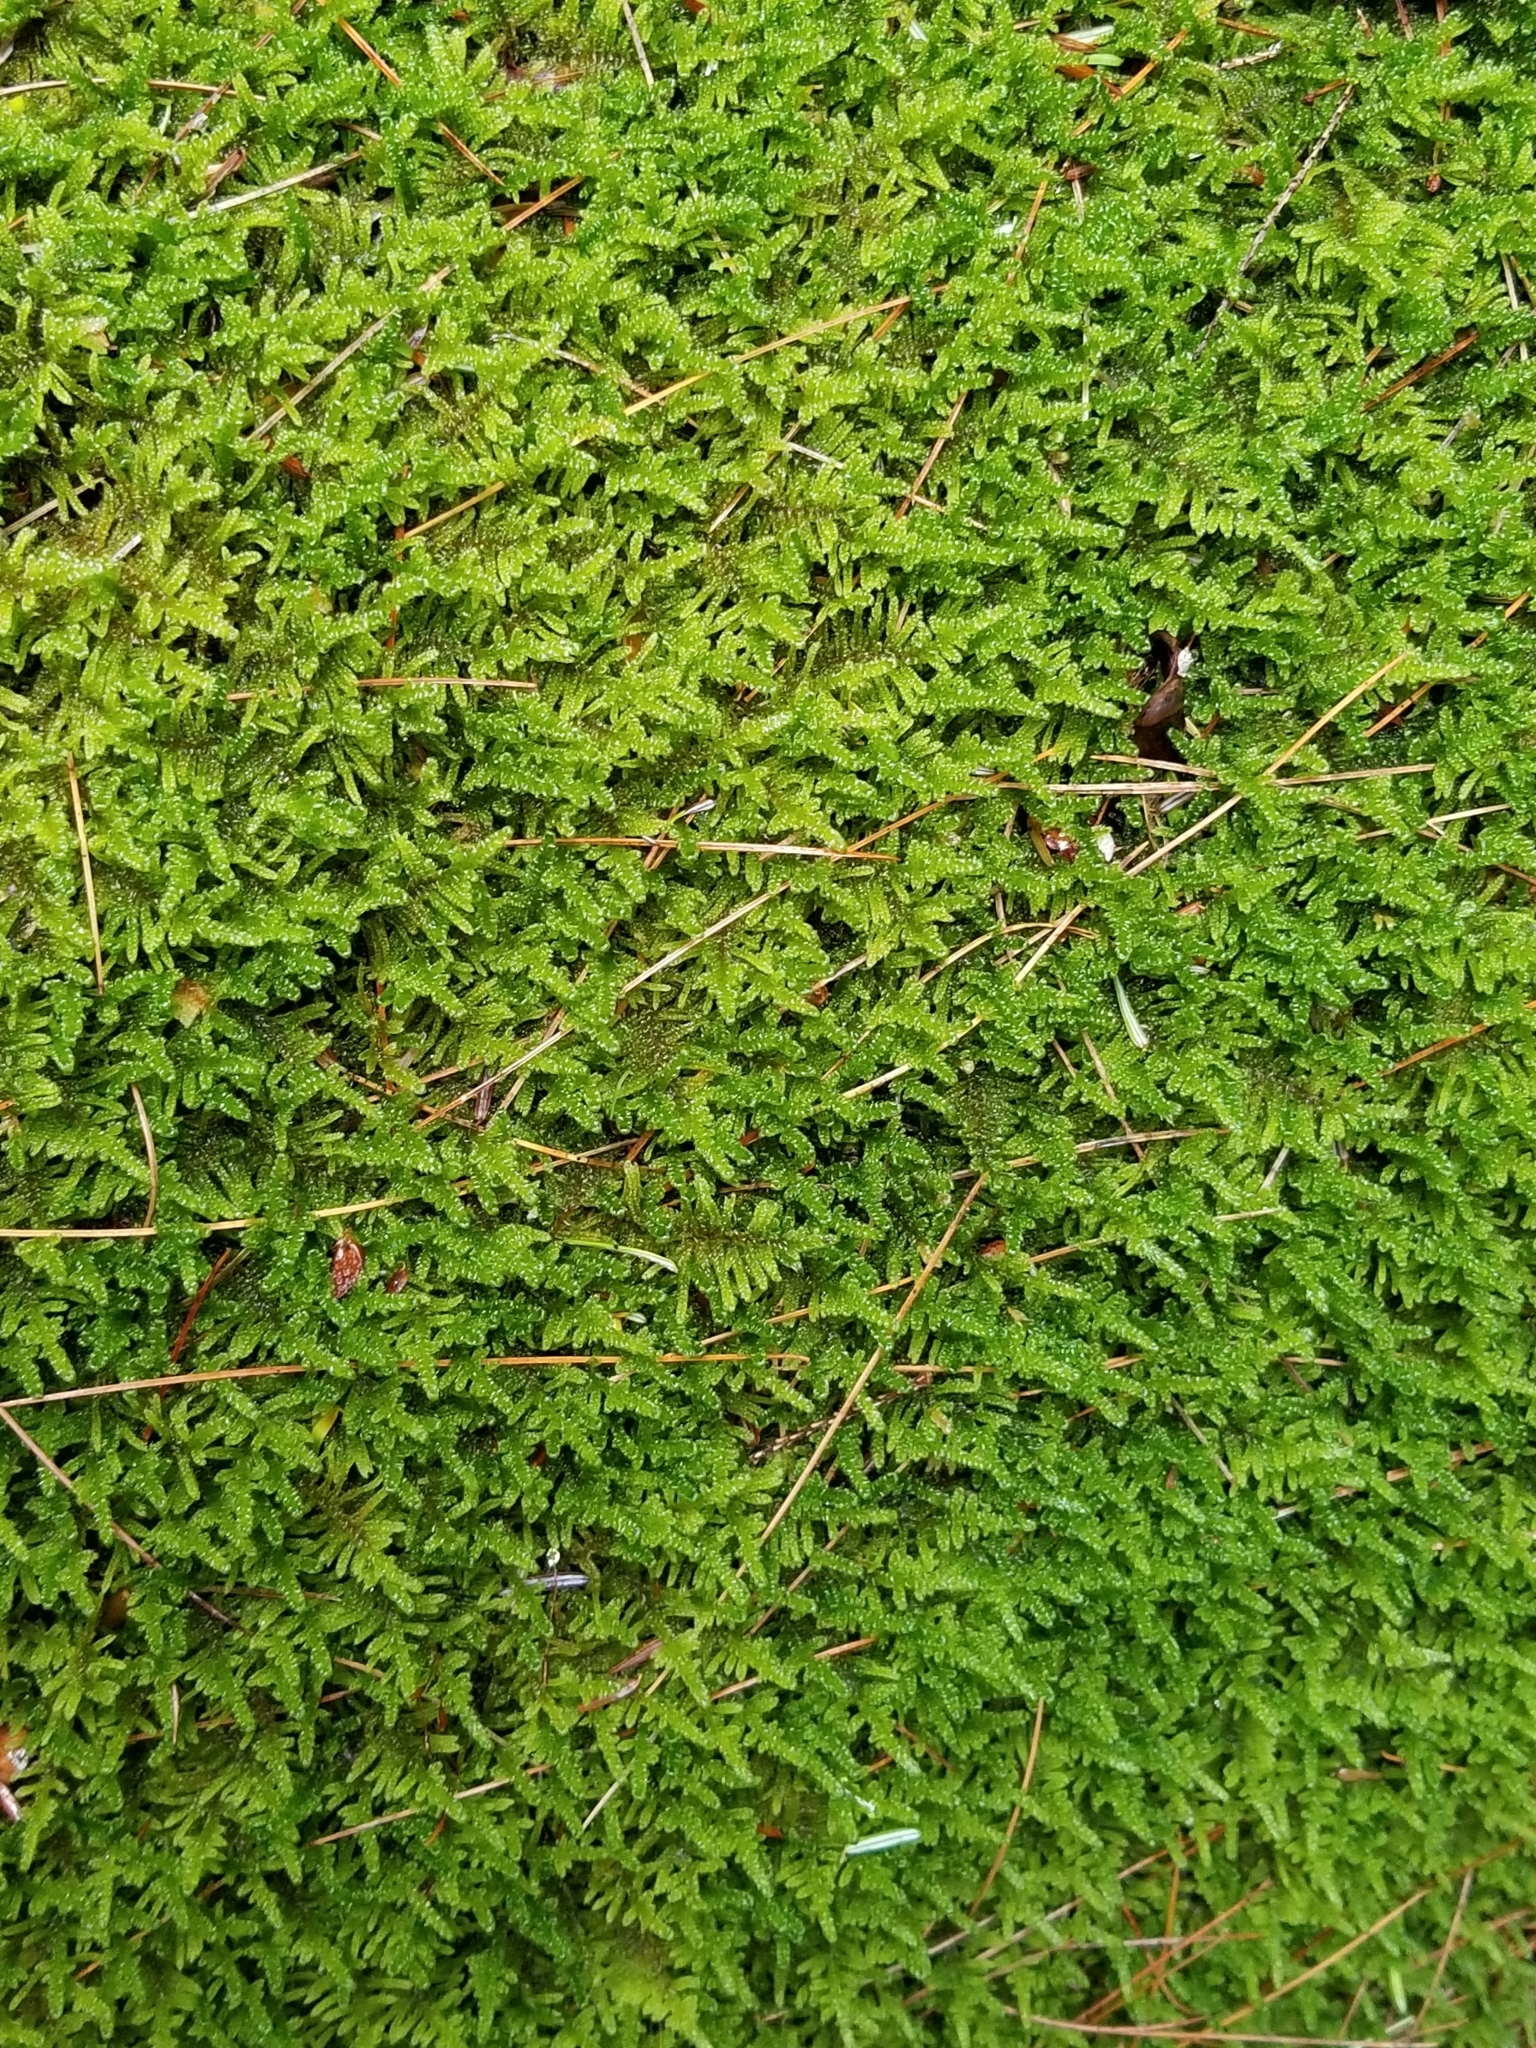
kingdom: Plantae
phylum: Bryophyta
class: Bryopsida
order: Hypnales
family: Callicladiaceae
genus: Callicladium
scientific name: Callicladium imponens
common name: Brocade moss
